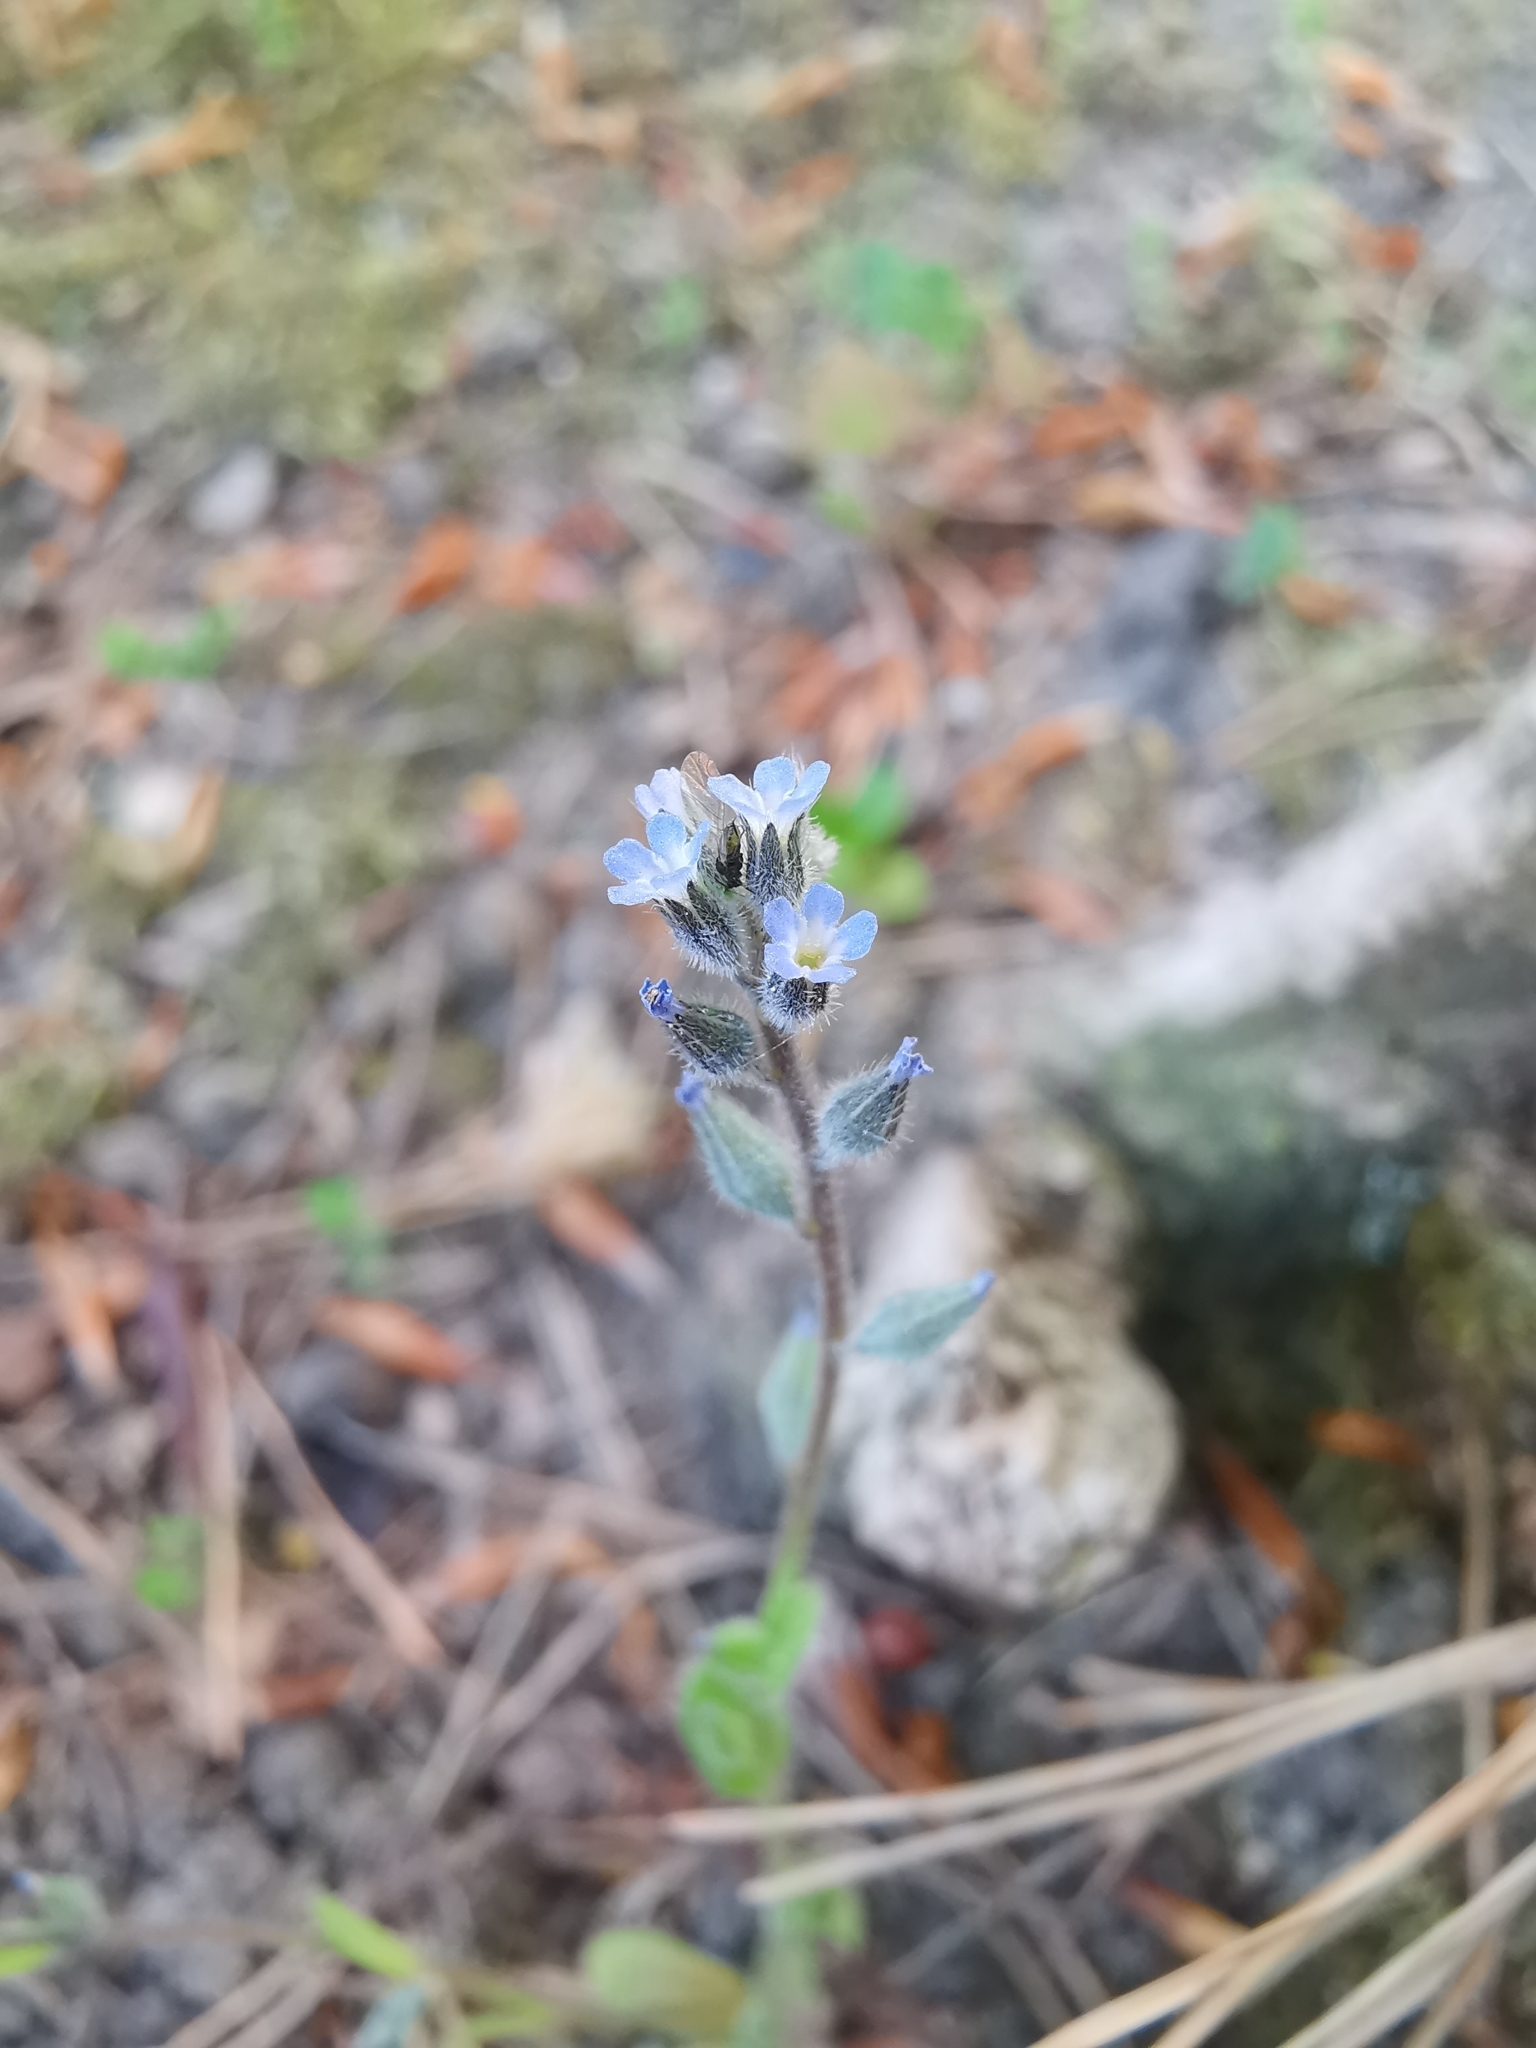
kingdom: Plantae
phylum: Tracheophyta
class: Magnoliopsida
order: Boraginales
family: Boraginaceae
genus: Myosotis
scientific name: Myosotis stricta
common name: Strict forget-me-not
